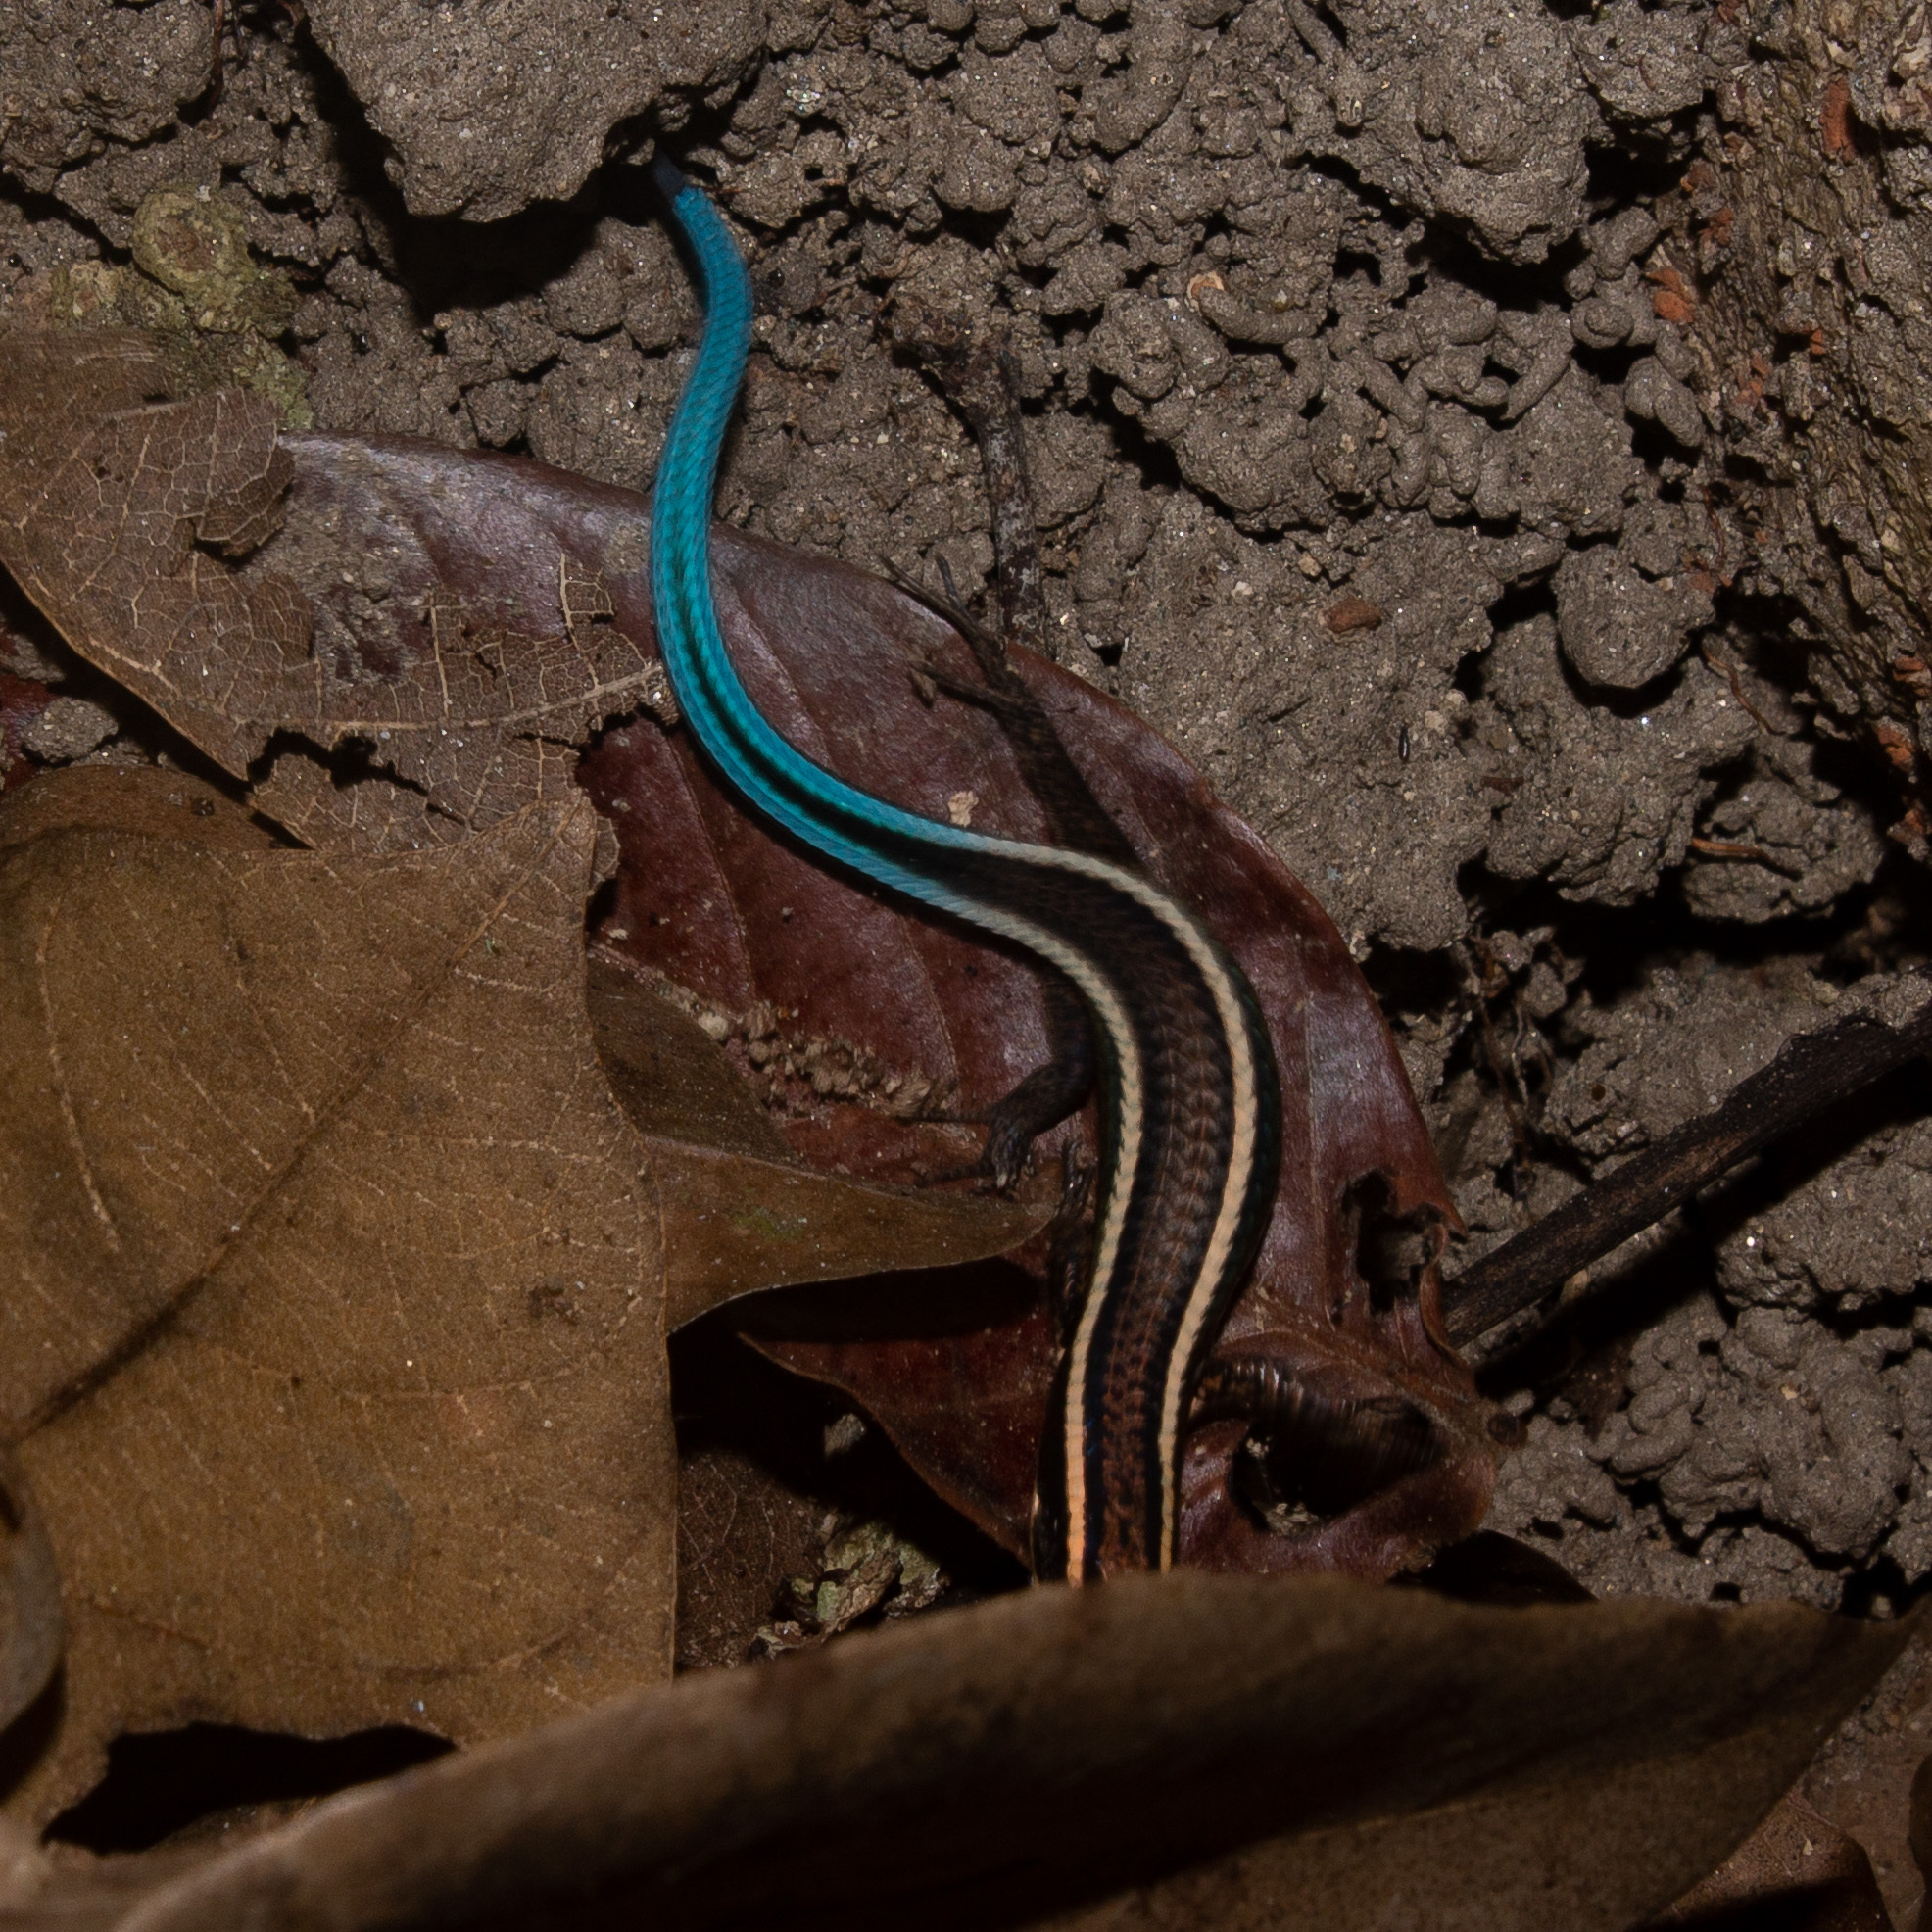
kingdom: Animalia
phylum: Chordata
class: Squamata
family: Gymnophthalmidae
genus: Tretioscincus
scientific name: Tretioscincus bifasciatus
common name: Rio magdalena tegu
